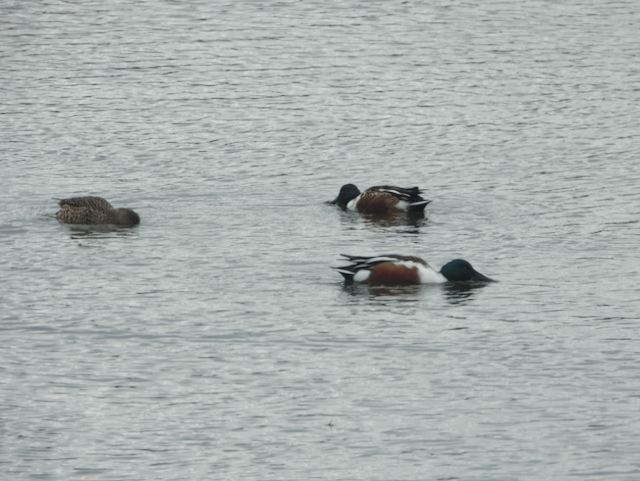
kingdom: Animalia
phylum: Chordata
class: Aves
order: Anseriformes
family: Anatidae
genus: Spatula
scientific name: Spatula clypeata
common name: Northern shoveler
